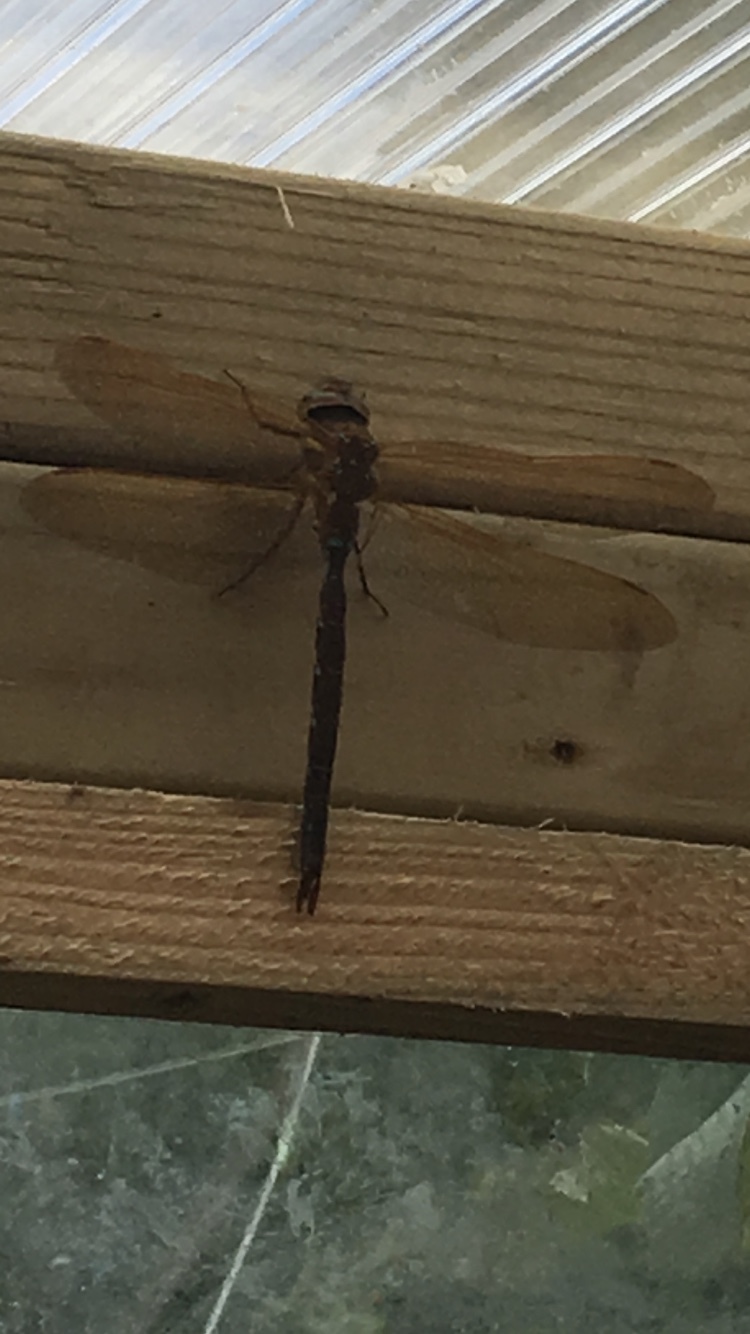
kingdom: Animalia
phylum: Arthropoda
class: Insecta
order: Odonata
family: Aeshnidae
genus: Aeshna
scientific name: Aeshna grandis
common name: Brown hawker
